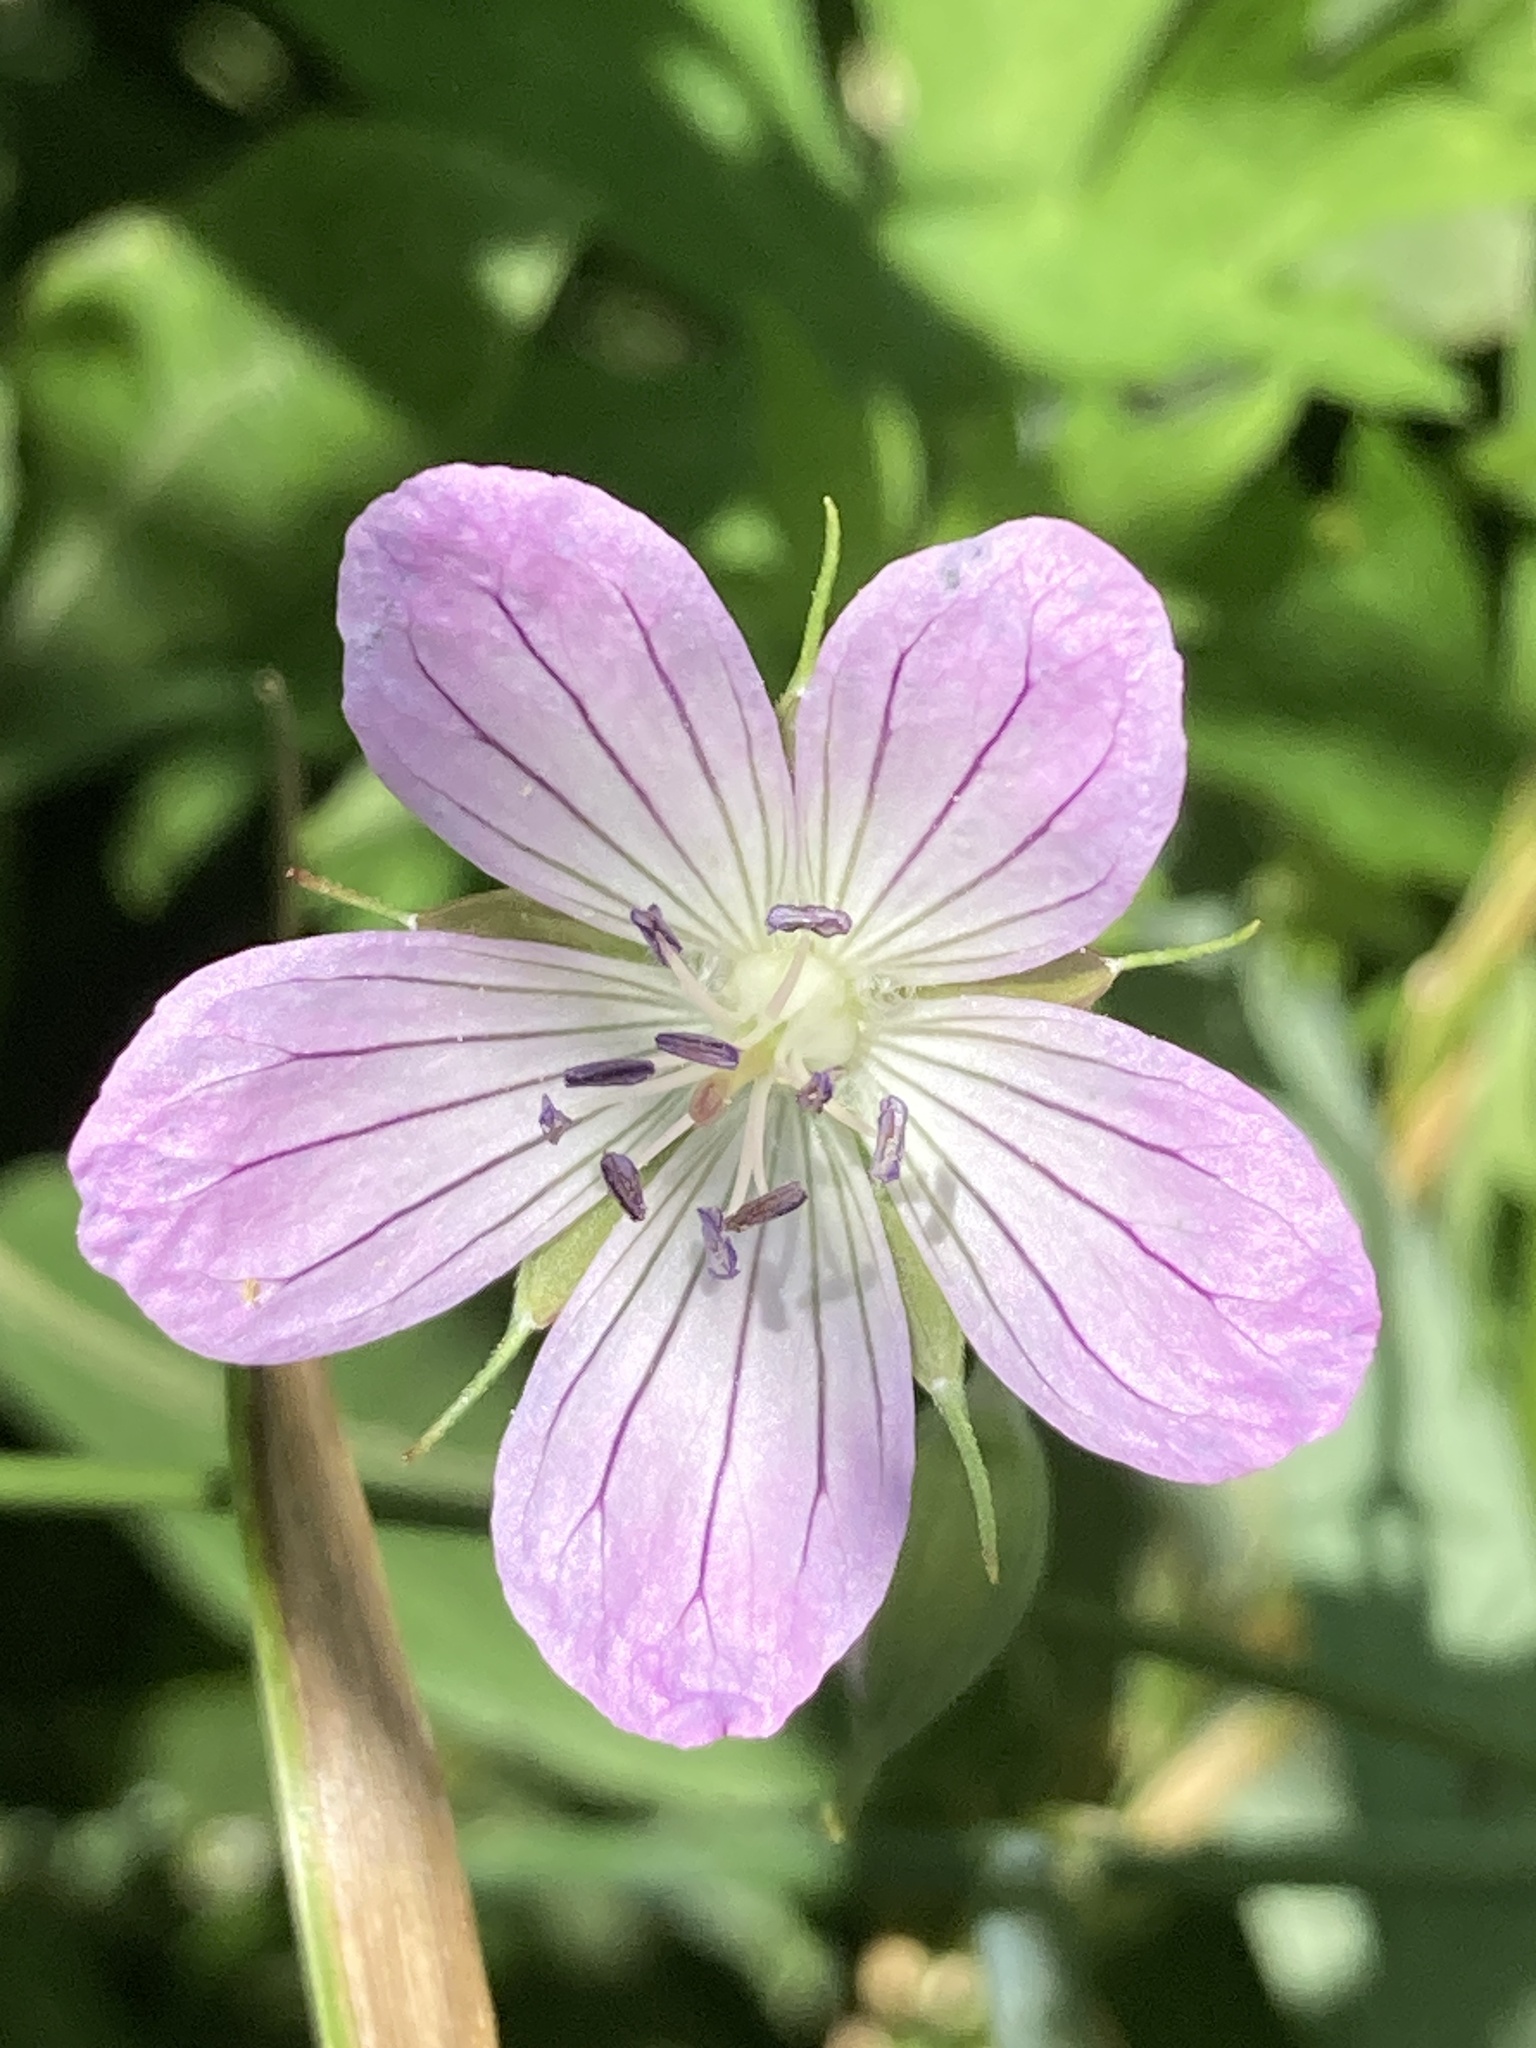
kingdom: Plantae
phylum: Tracheophyta
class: Magnoliopsida
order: Geraniales
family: Geraniaceae
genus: Geranium
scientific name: Geranium collinum
